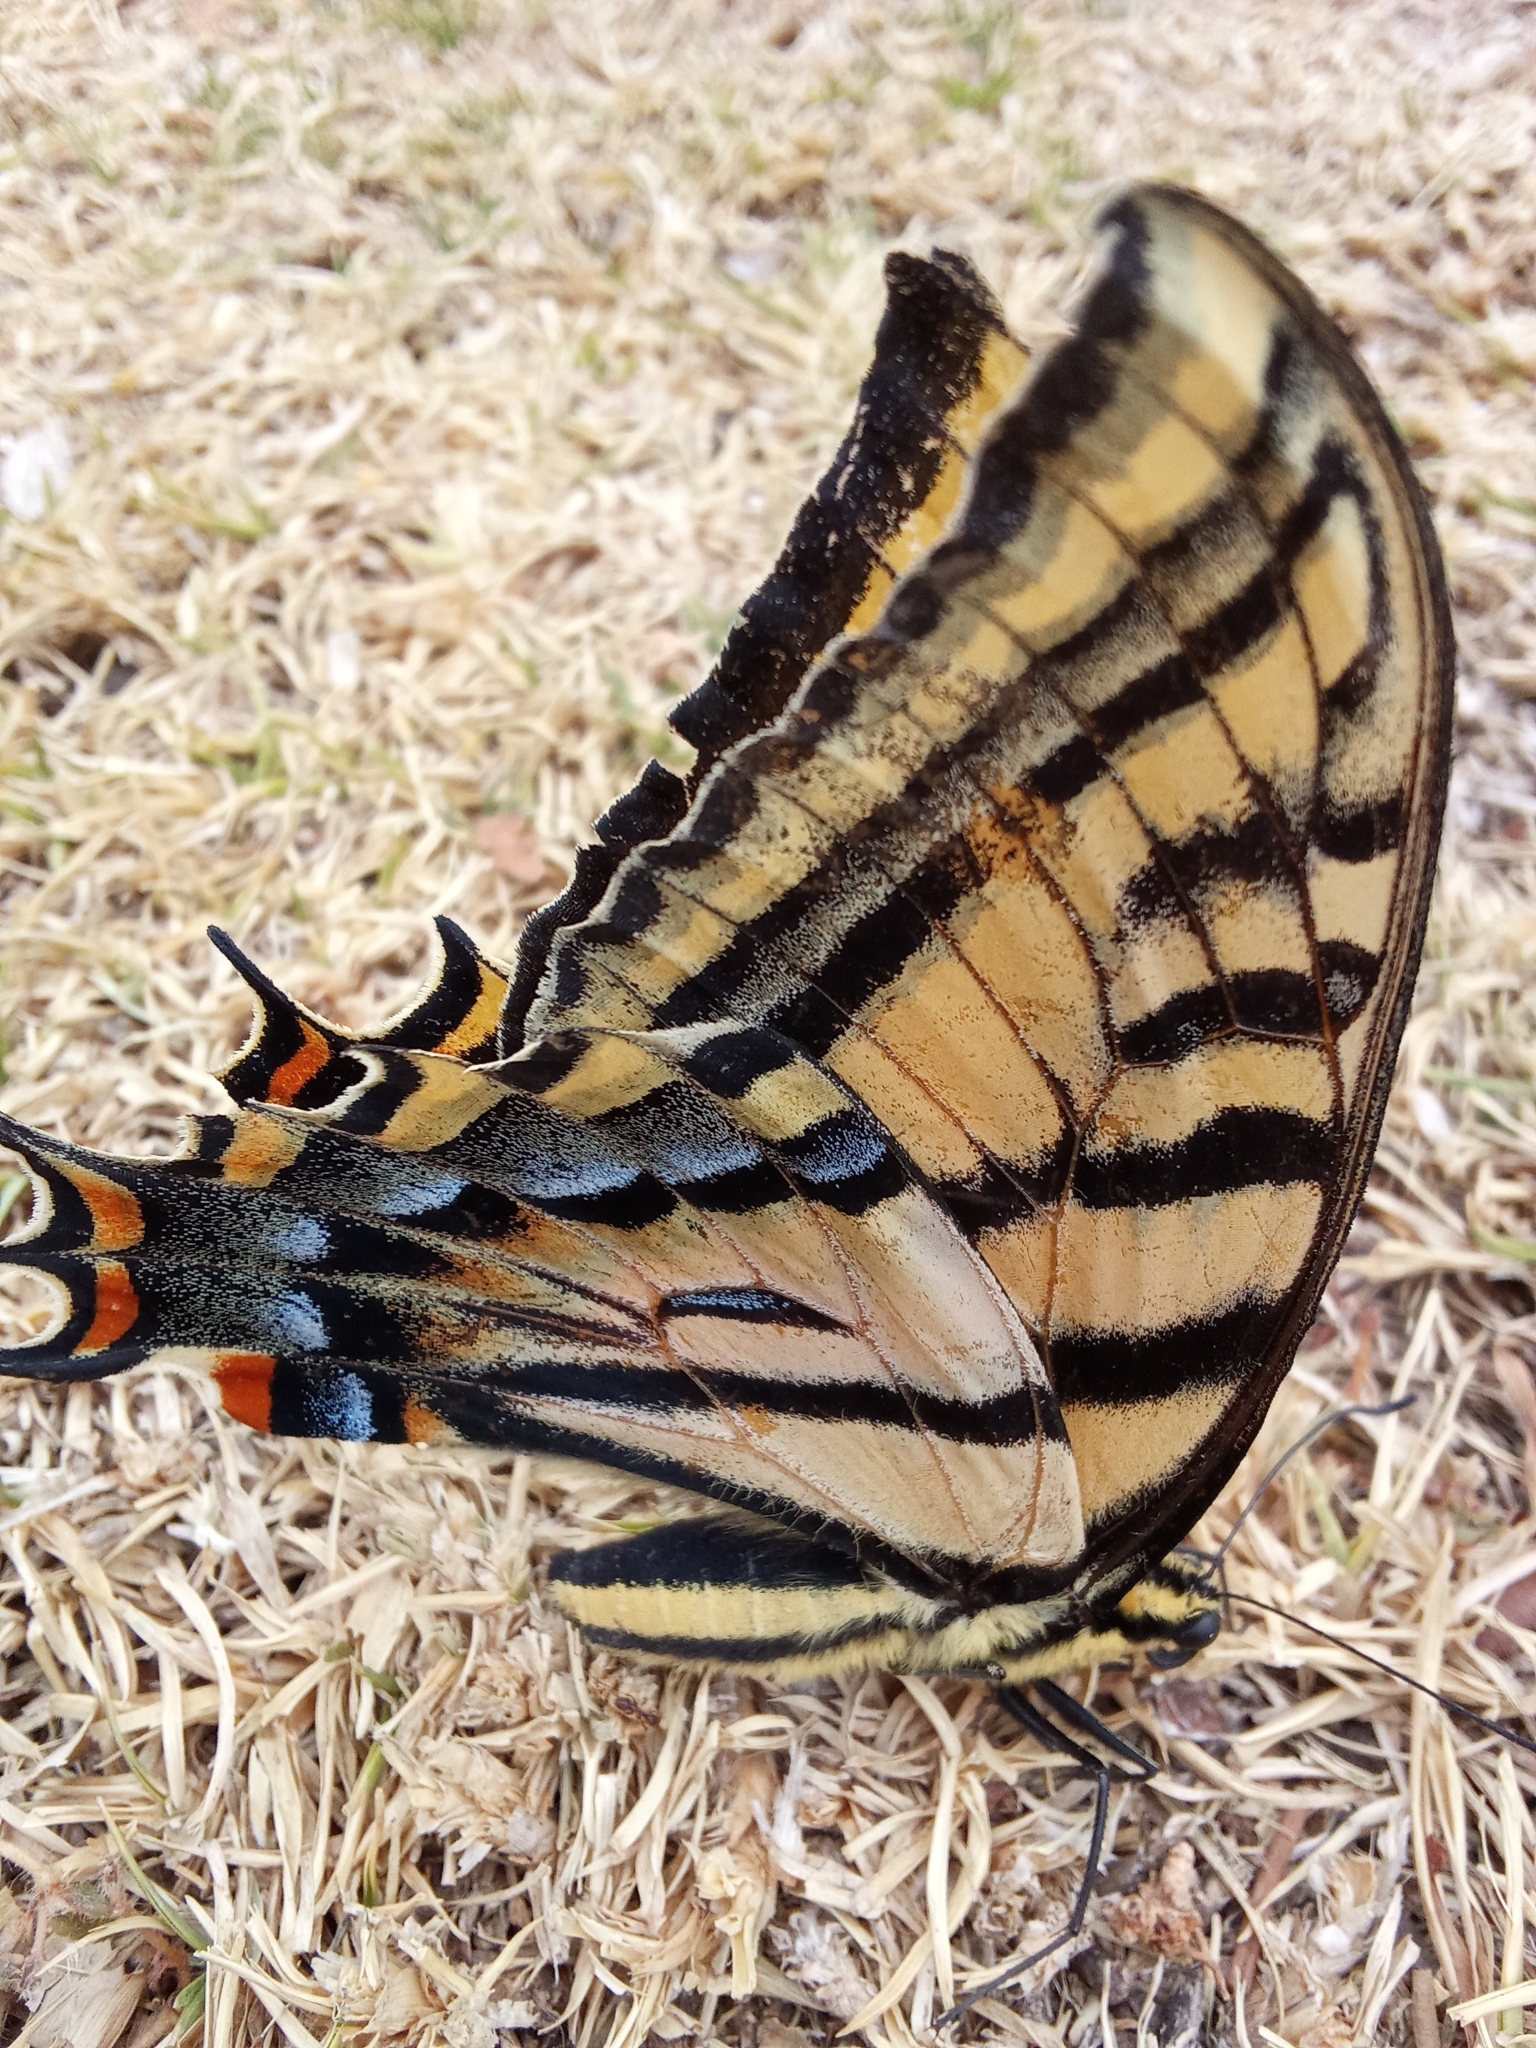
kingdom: Animalia
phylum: Arthropoda
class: Insecta
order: Lepidoptera
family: Papilionidae
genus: Papilio
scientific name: Papilio multicaudata
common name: Two-tailed tiger swallowtail
